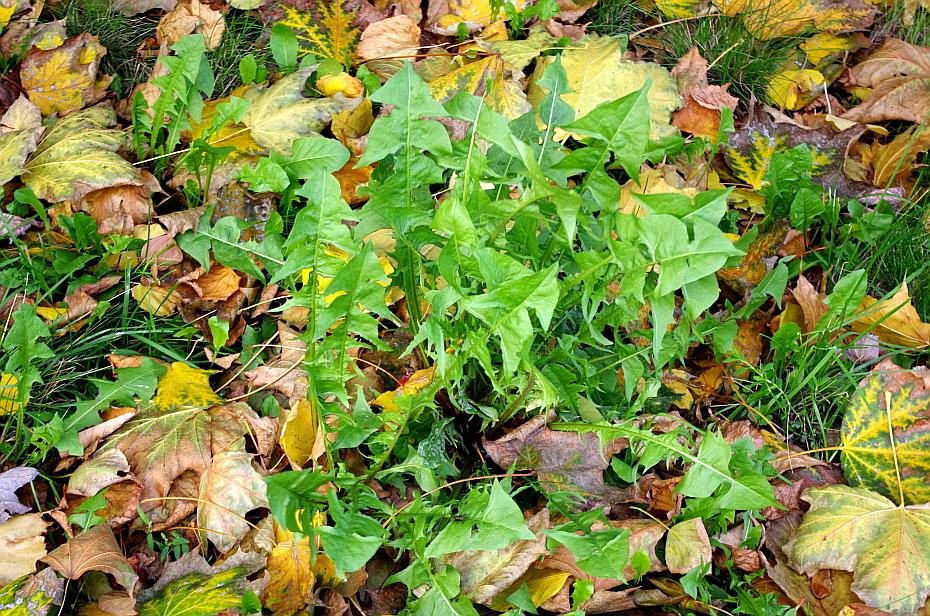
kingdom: Plantae
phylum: Tracheophyta
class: Magnoliopsida
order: Asterales
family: Asteraceae
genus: Taraxacum
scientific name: Taraxacum officinale
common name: Common dandelion
